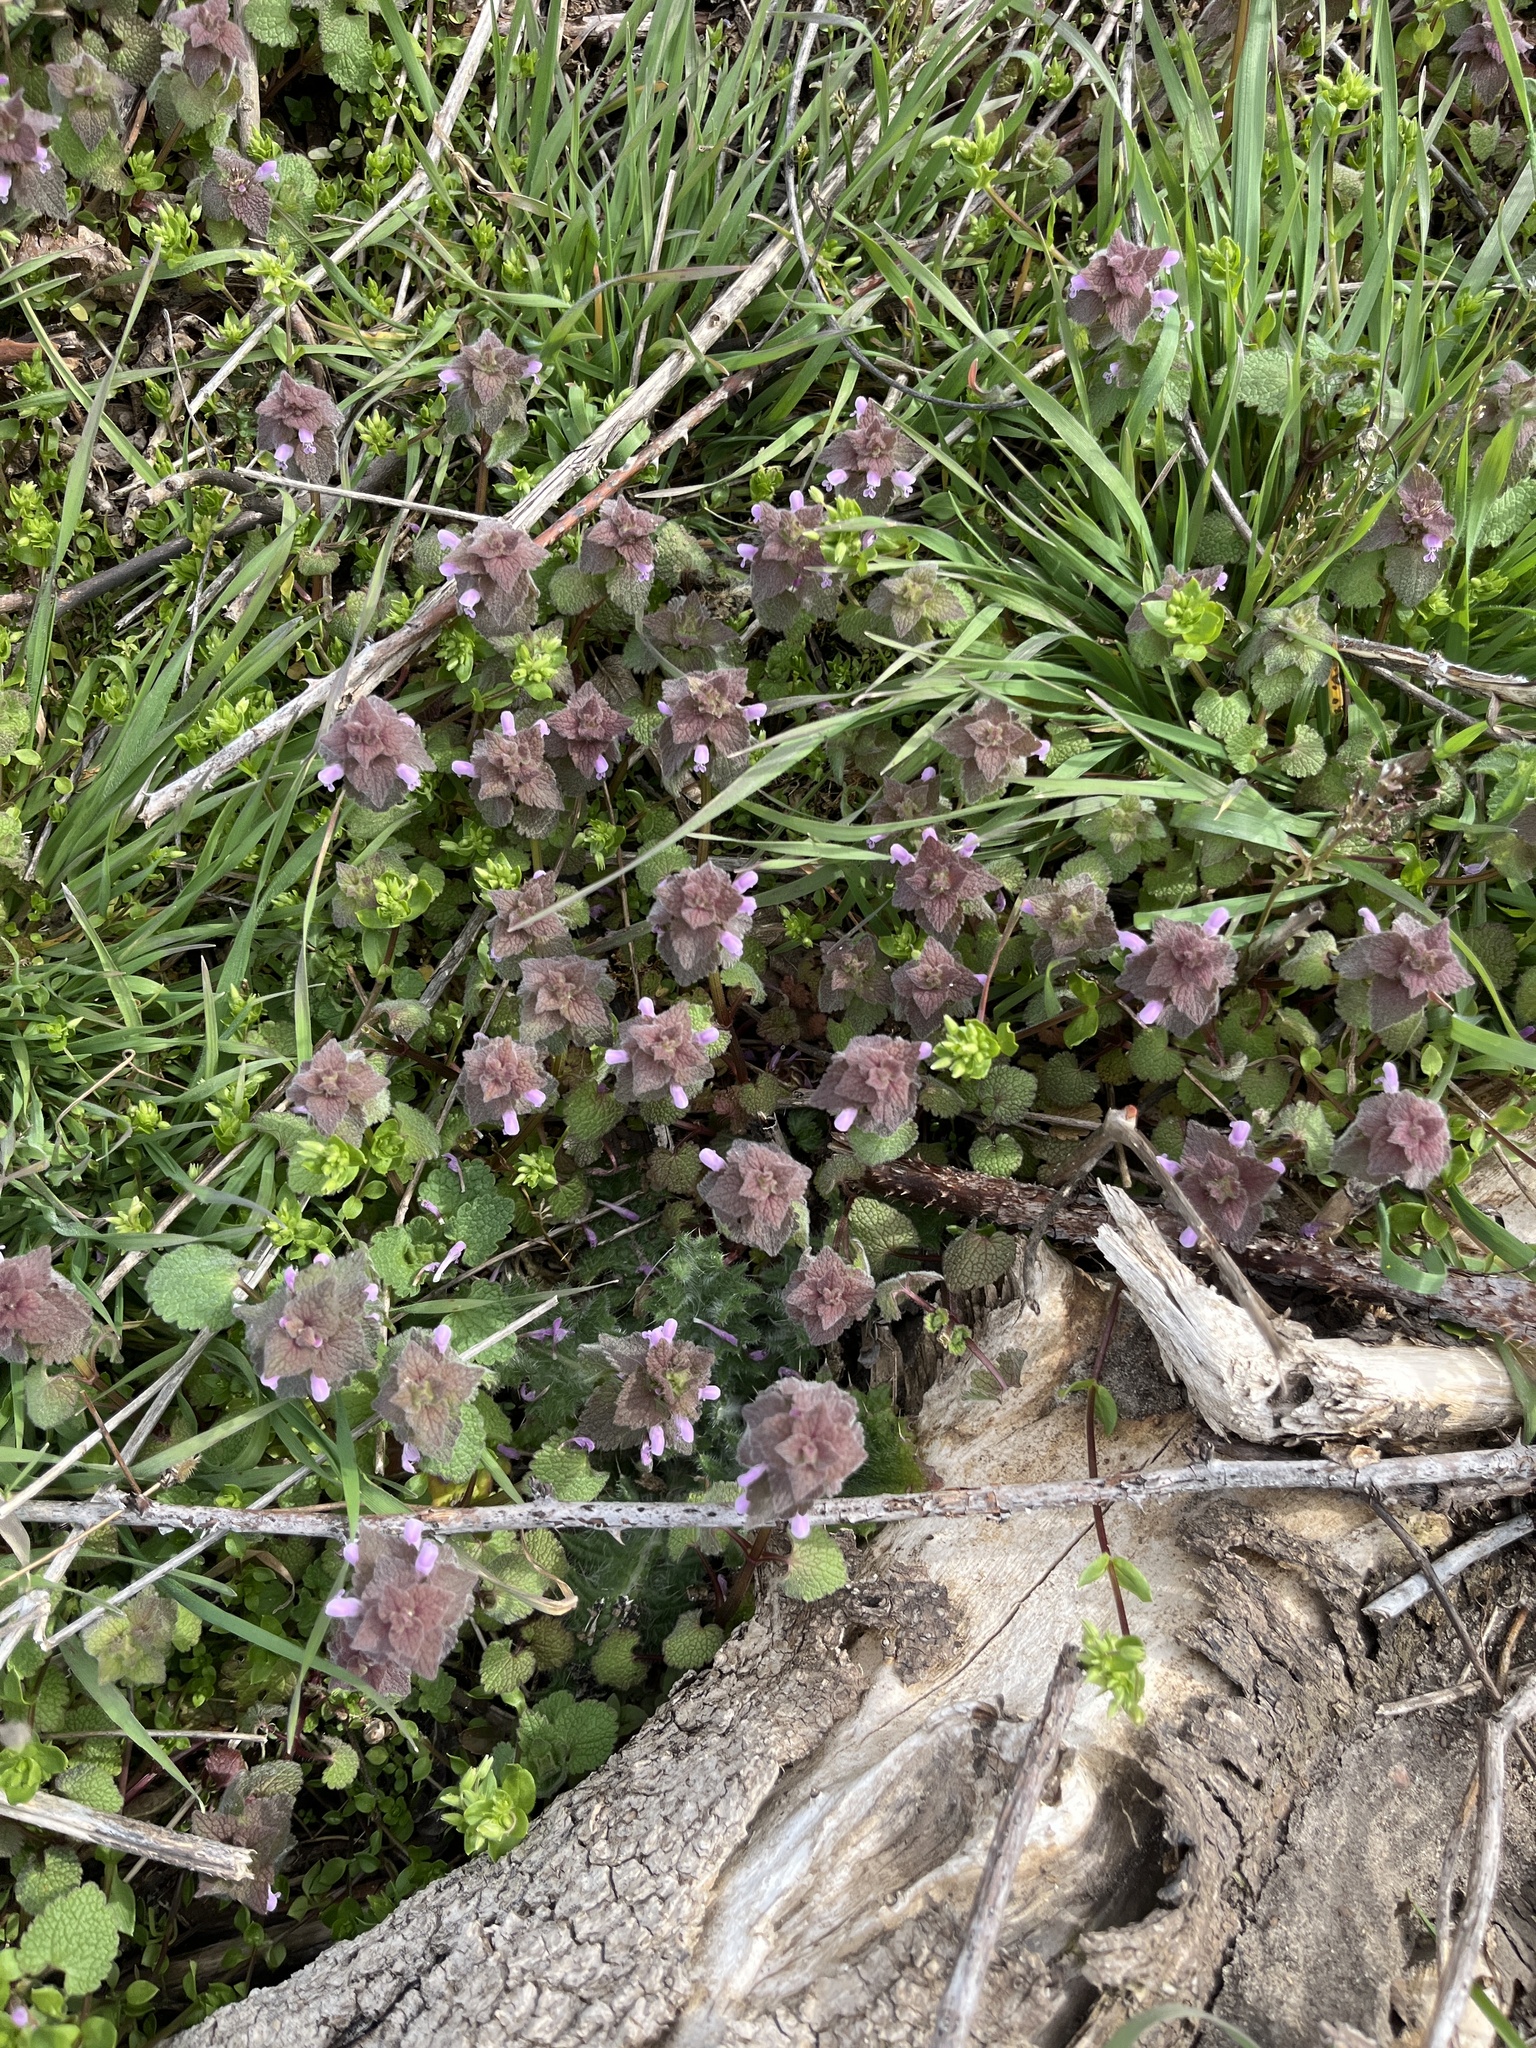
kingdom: Plantae
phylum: Tracheophyta
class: Magnoliopsida
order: Lamiales
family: Lamiaceae
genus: Lamium
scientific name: Lamium purpureum
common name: Red dead-nettle
